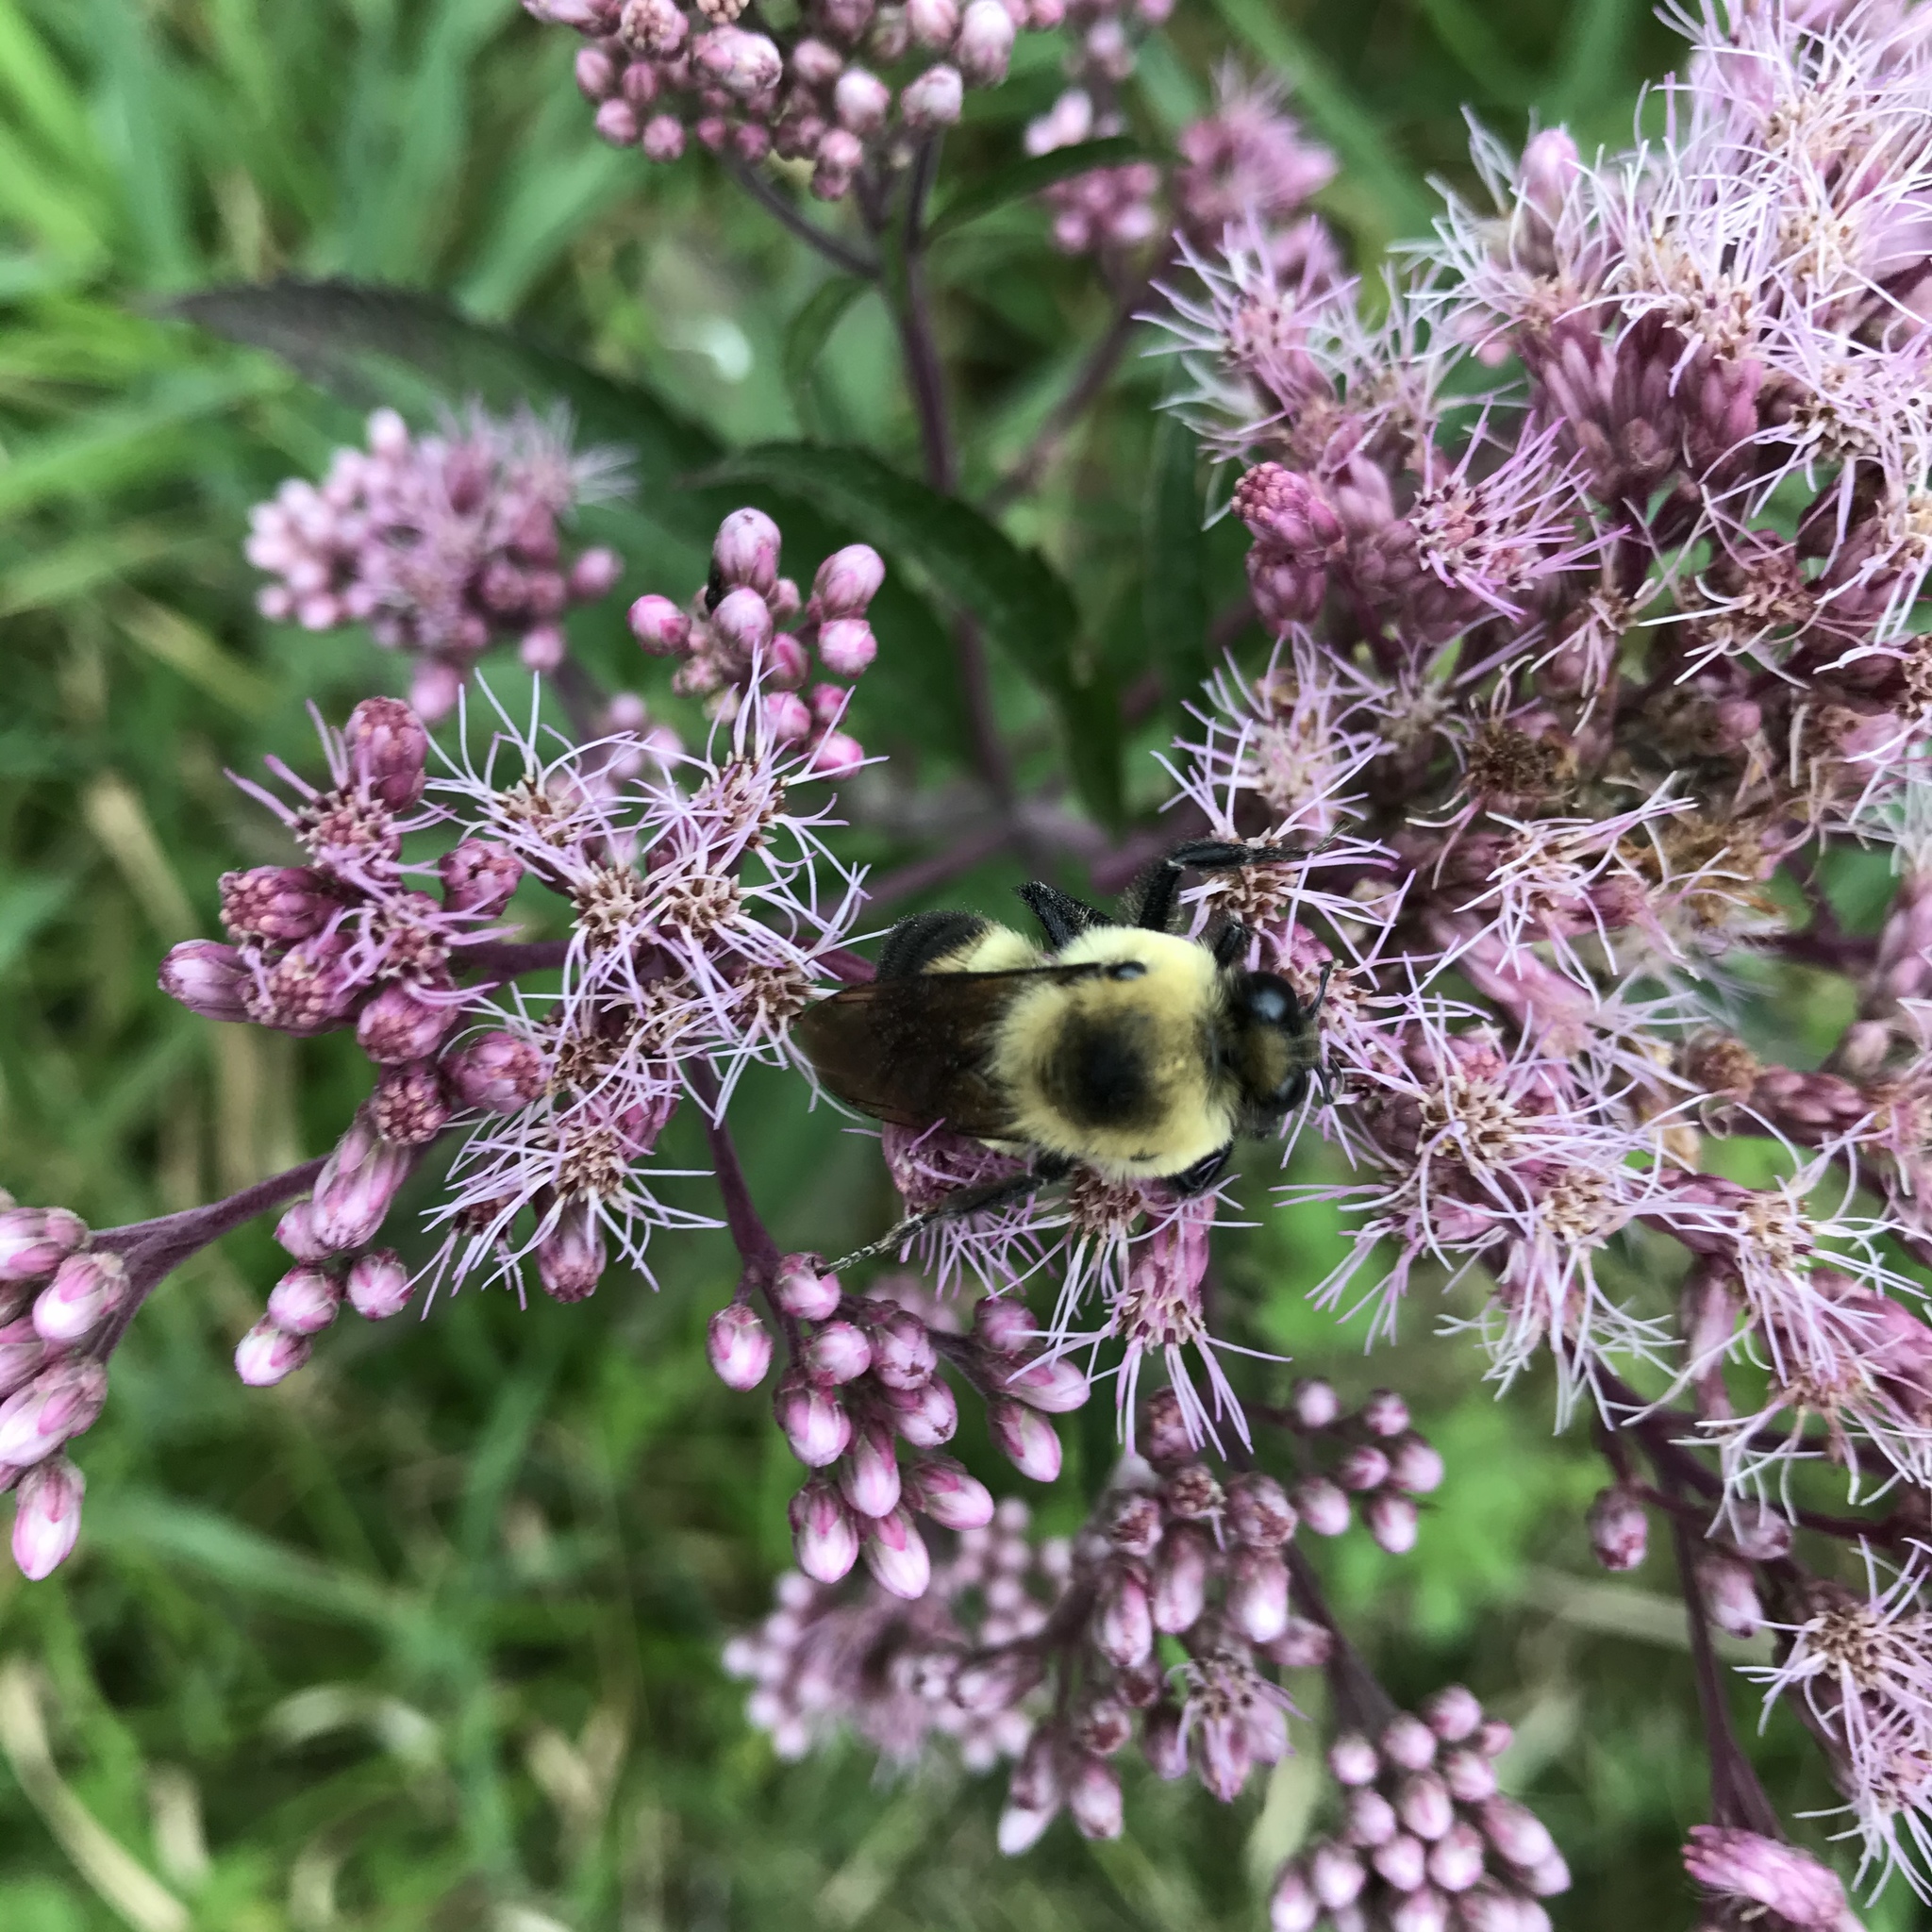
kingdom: Animalia
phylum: Arthropoda
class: Insecta
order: Hymenoptera
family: Apidae
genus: Bombus
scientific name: Bombus griseocollis
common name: Brown-belted bumble bee
